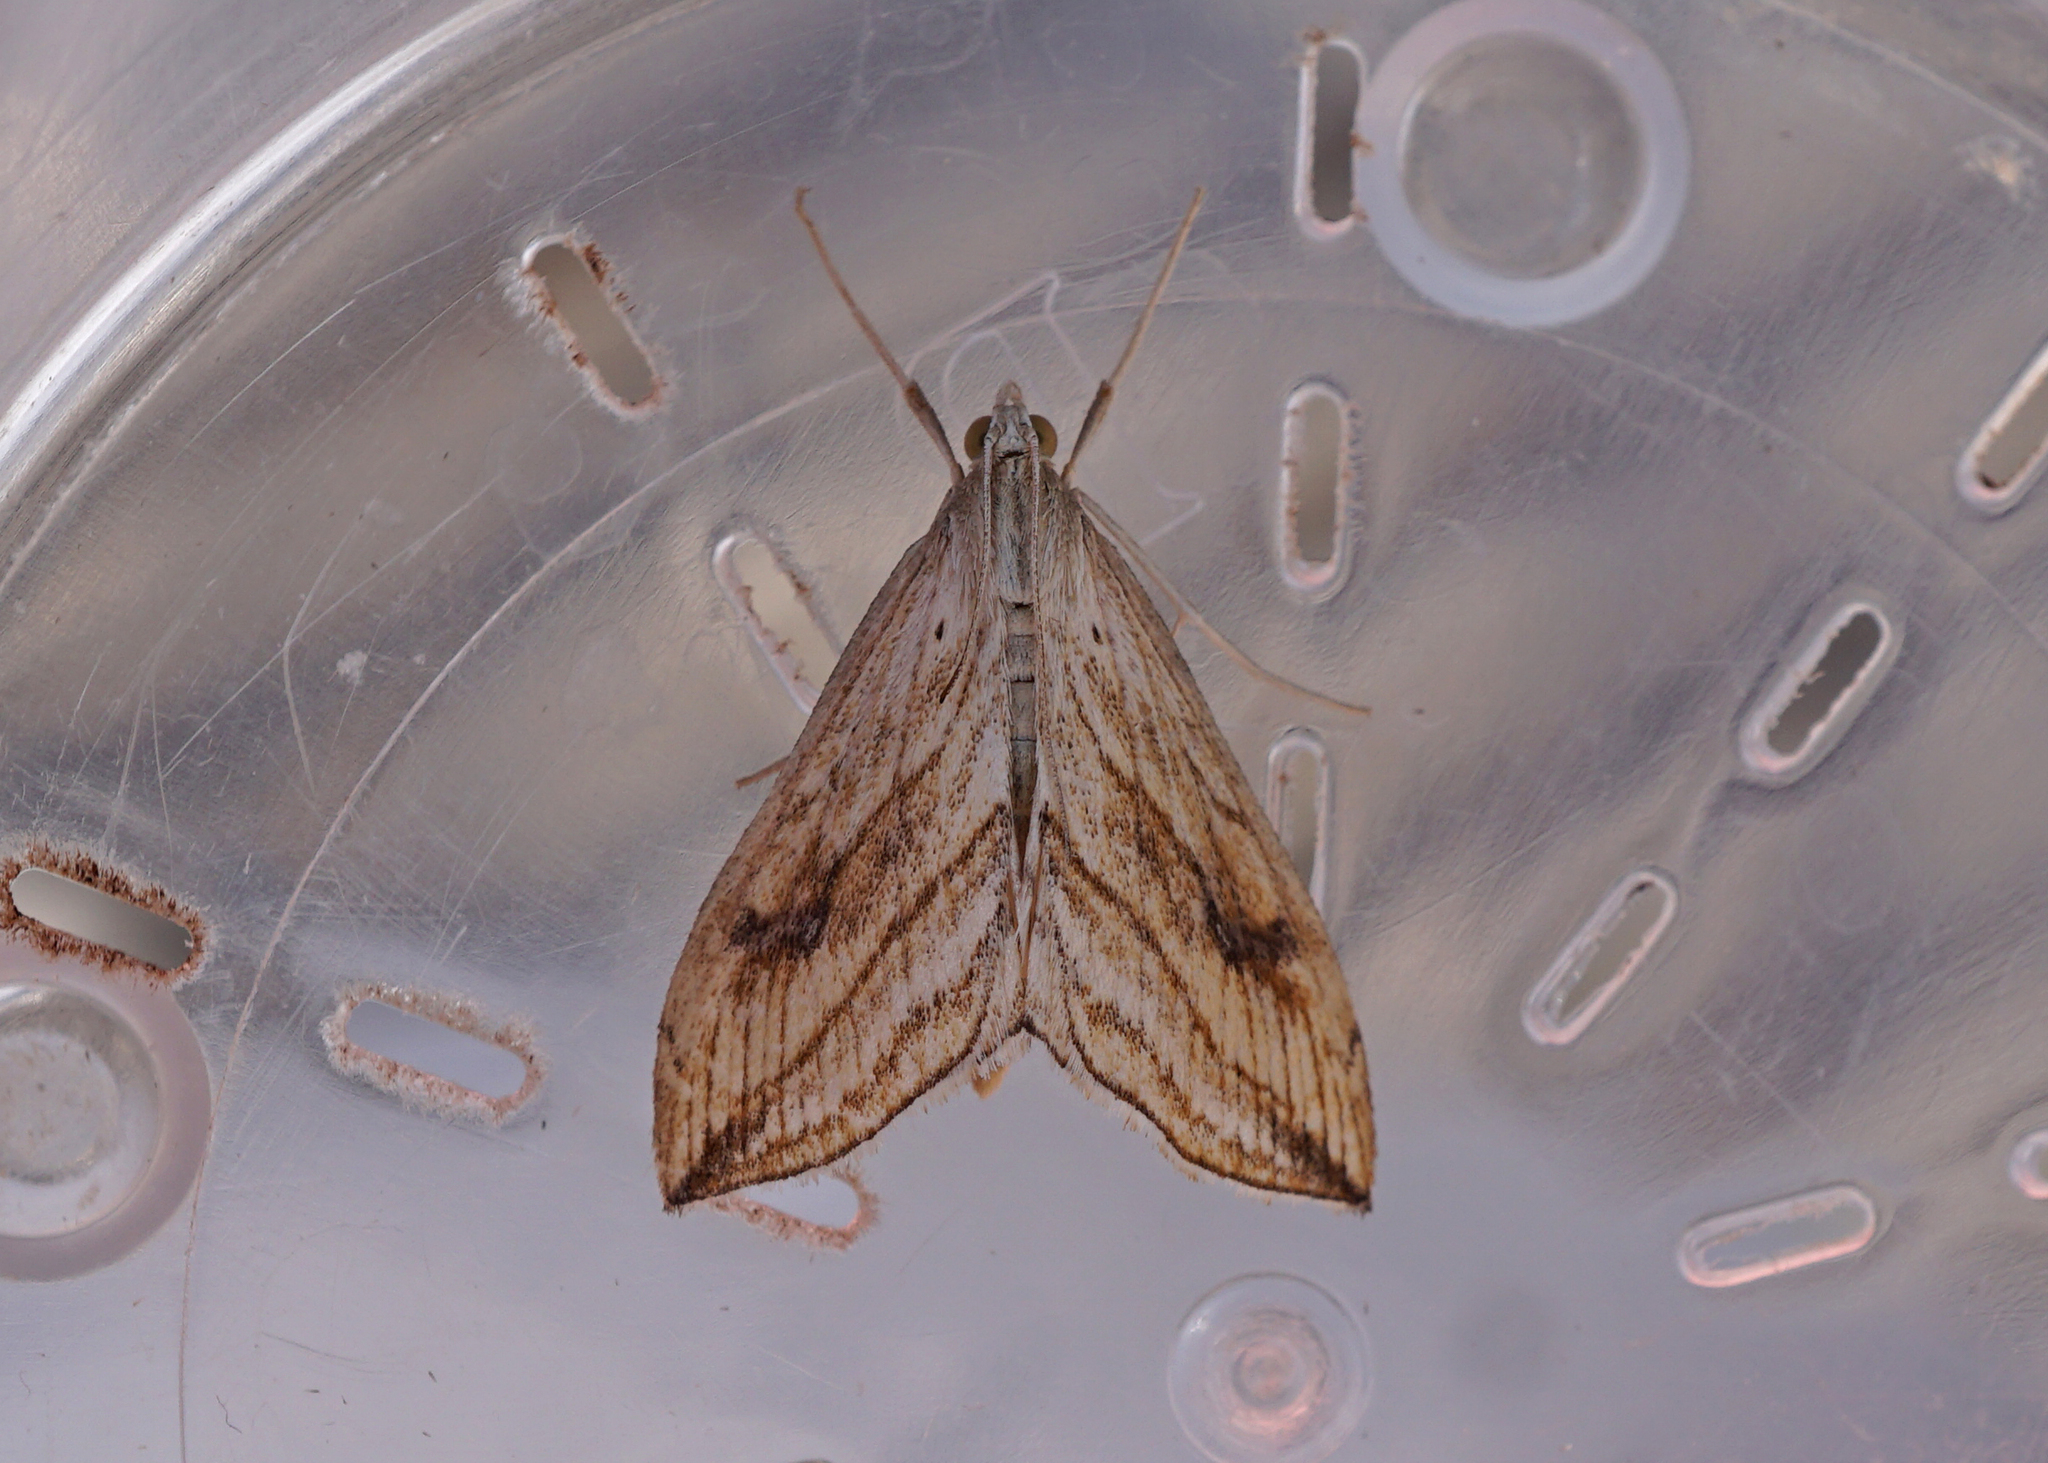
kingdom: Animalia
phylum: Arthropoda
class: Insecta
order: Lepidoptera
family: Crambidae
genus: Evergestis
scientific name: Evergestis forficalis
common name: Garden pebble
